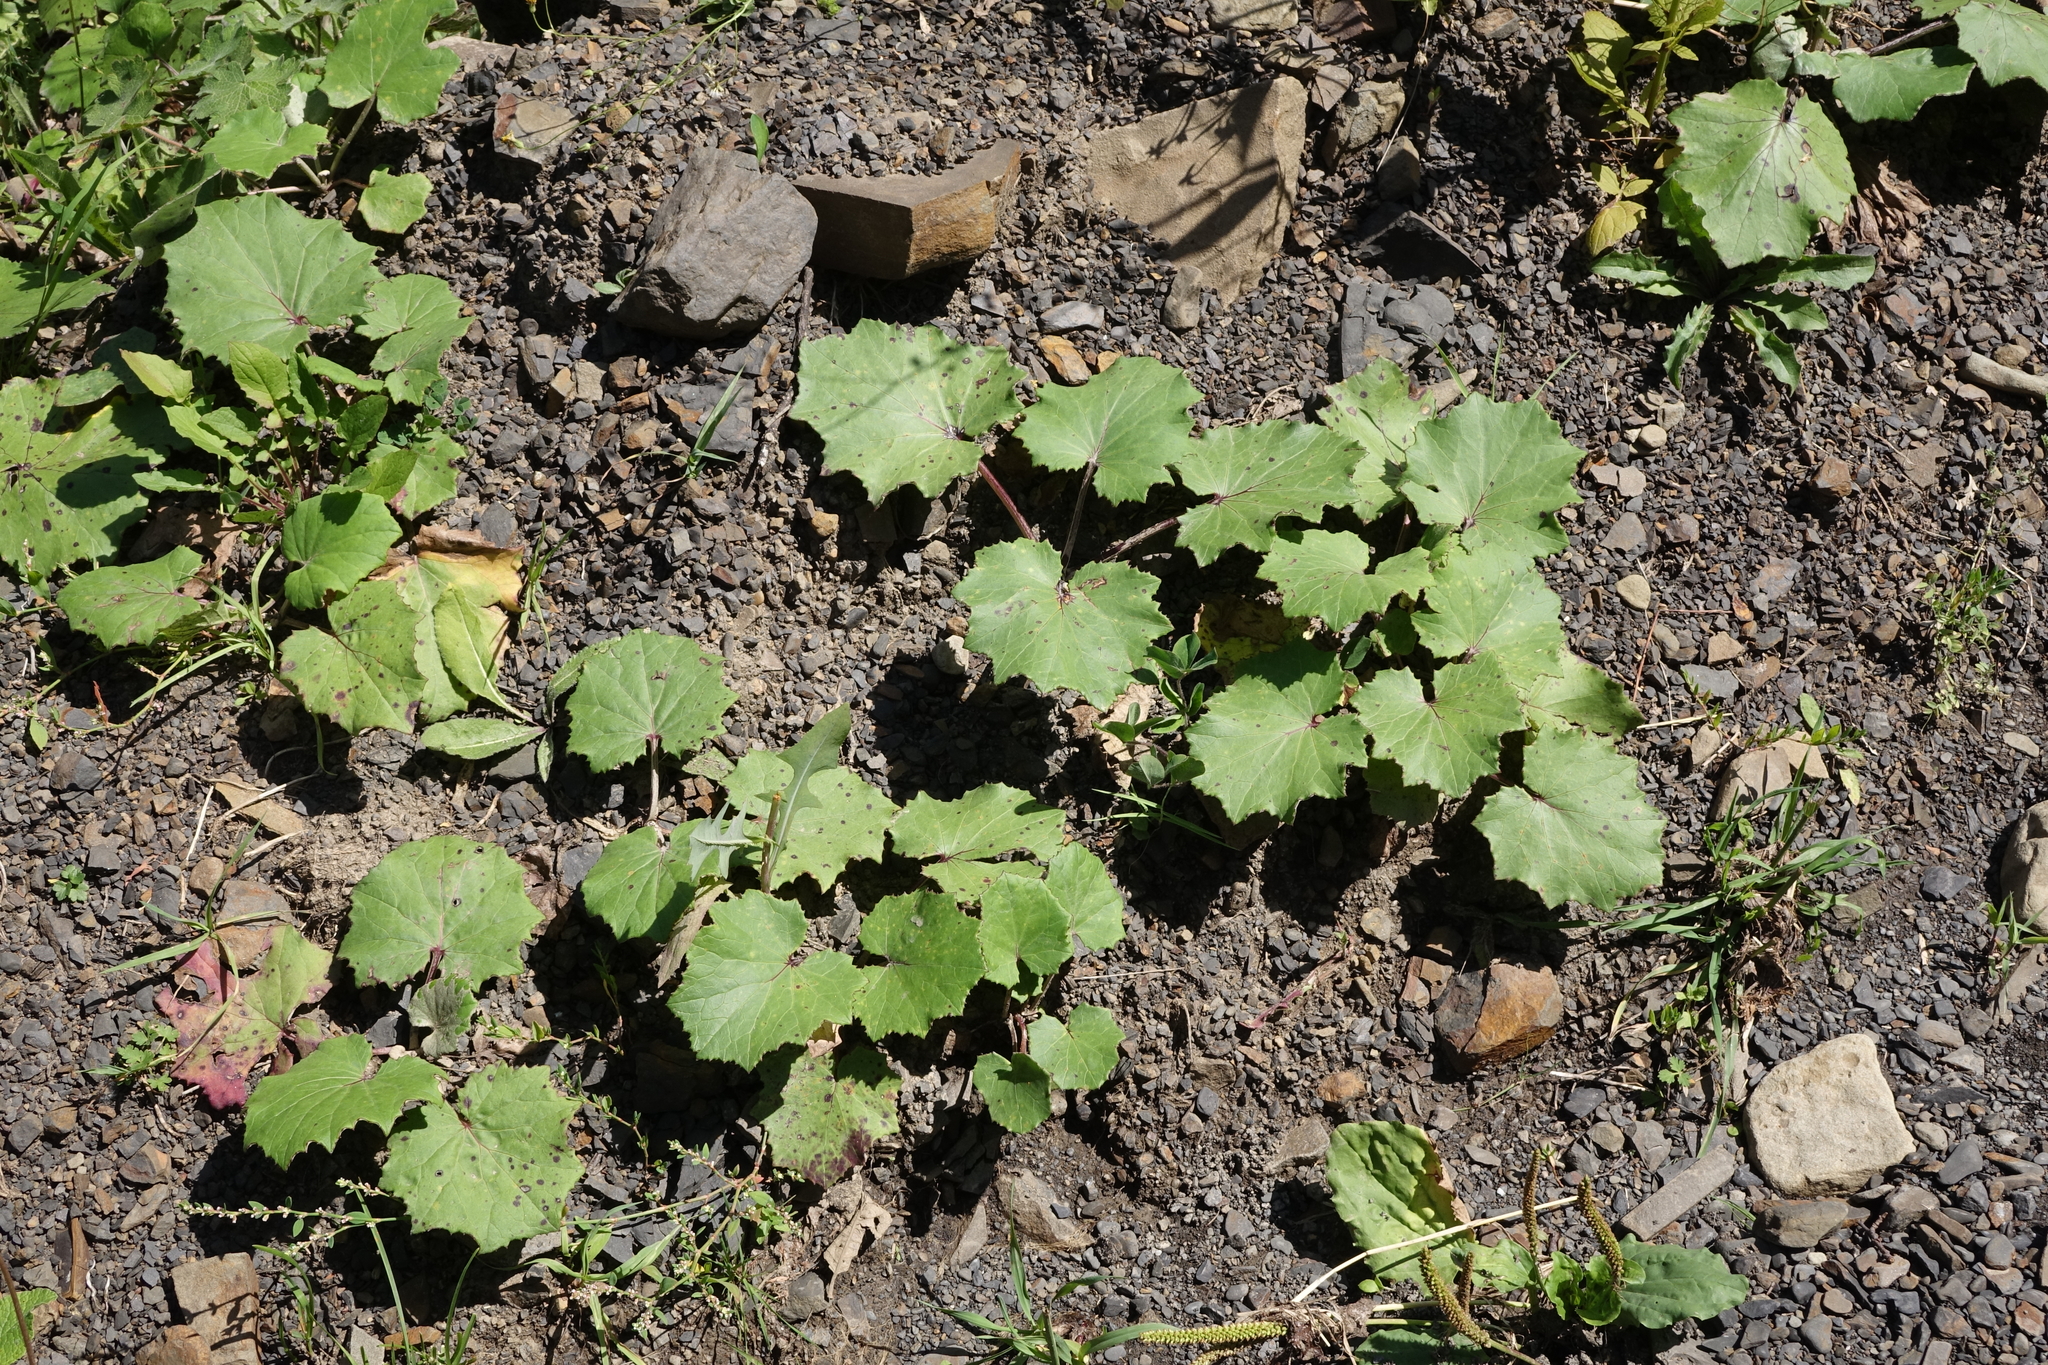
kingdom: Plantae
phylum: Tracheophyta
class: Magnoliopsida
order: Asterales
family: Asteraceae
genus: Tussilago
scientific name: Tussilago farfara
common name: Coltsfoot
